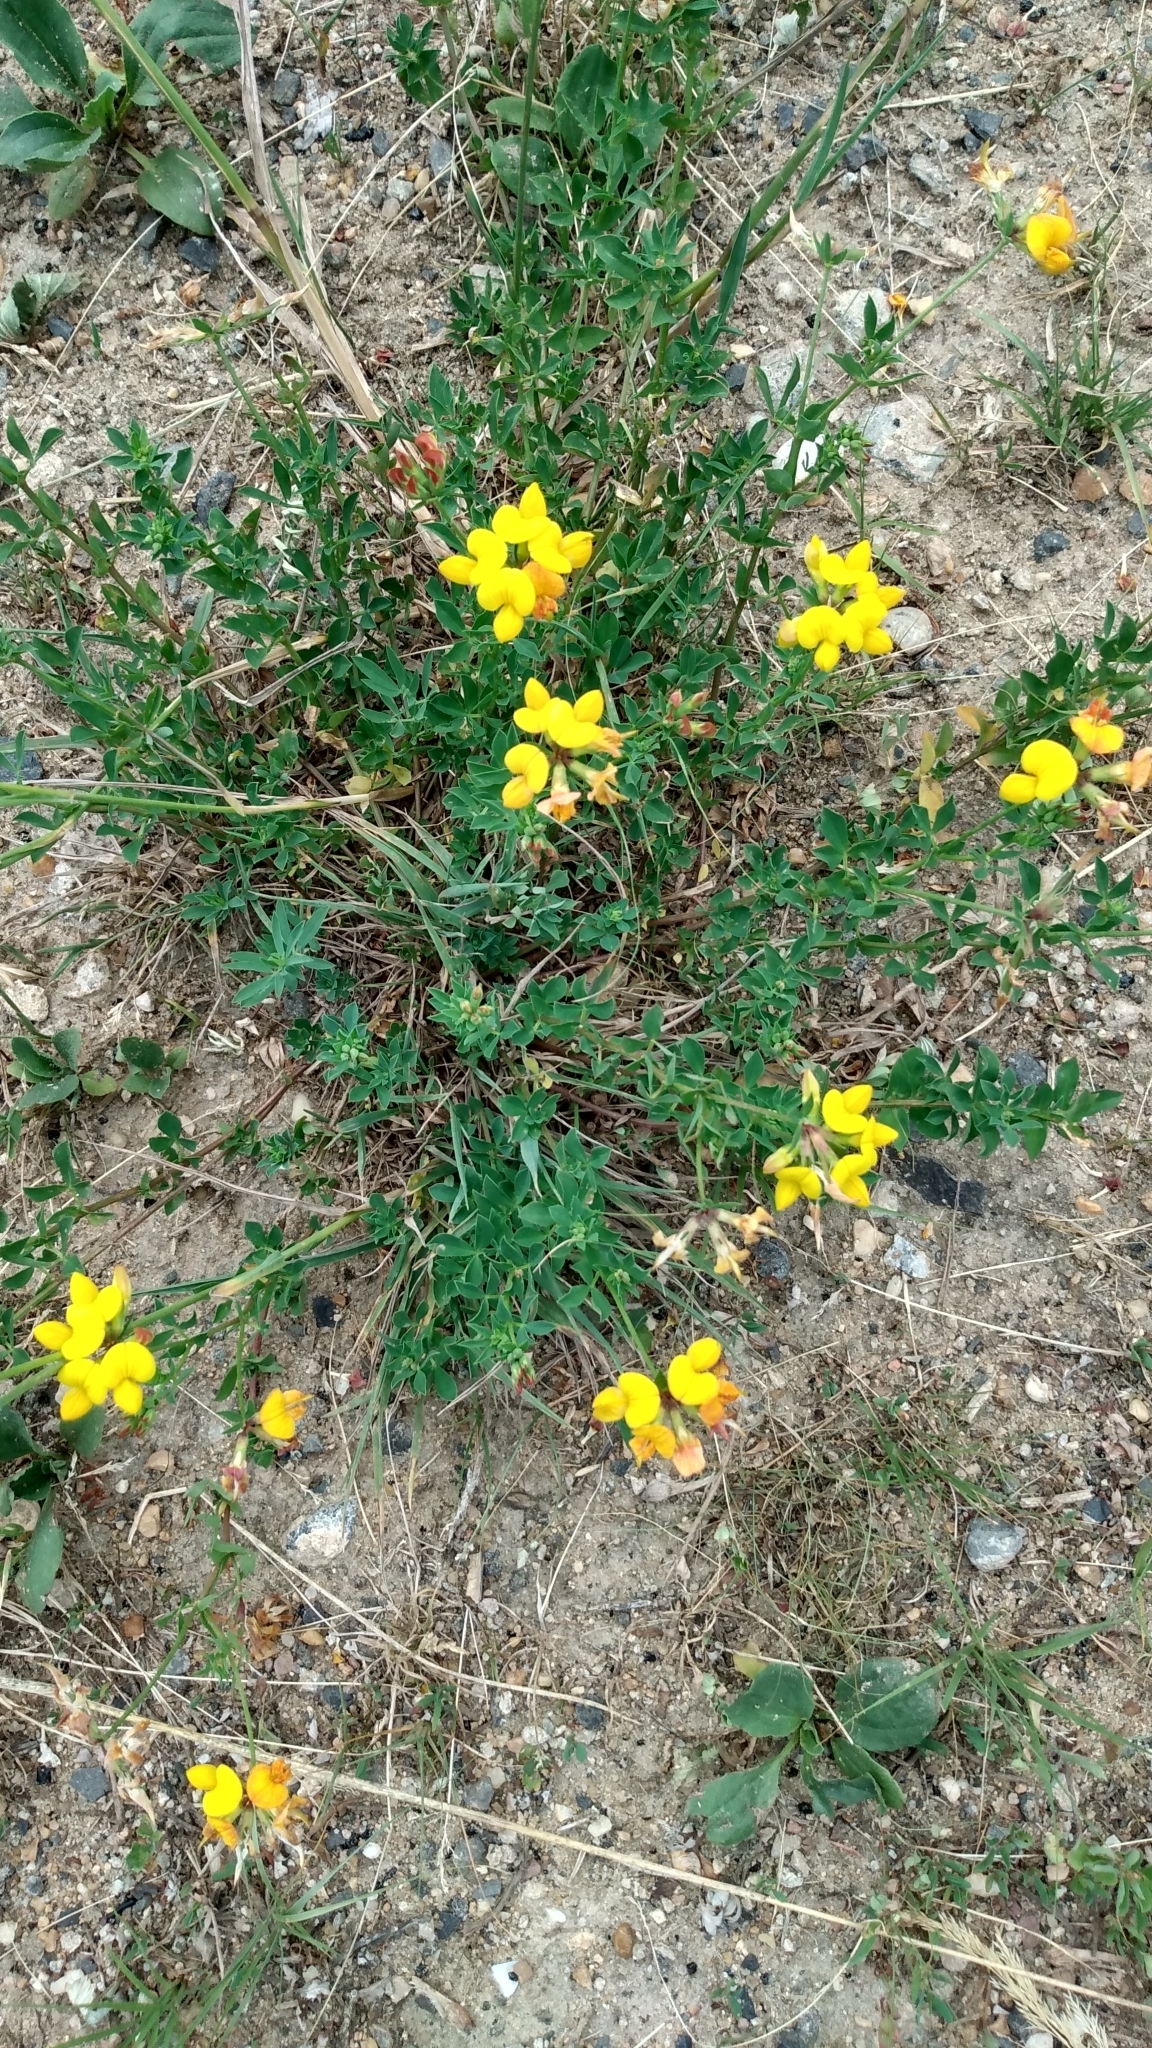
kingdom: Plantae
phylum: Tracheophyta
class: Magnoliopsida
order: Fabales
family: Fabaceae
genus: Lotus
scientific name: Lotus corniculatus
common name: Common bird's-foot-trefoil
